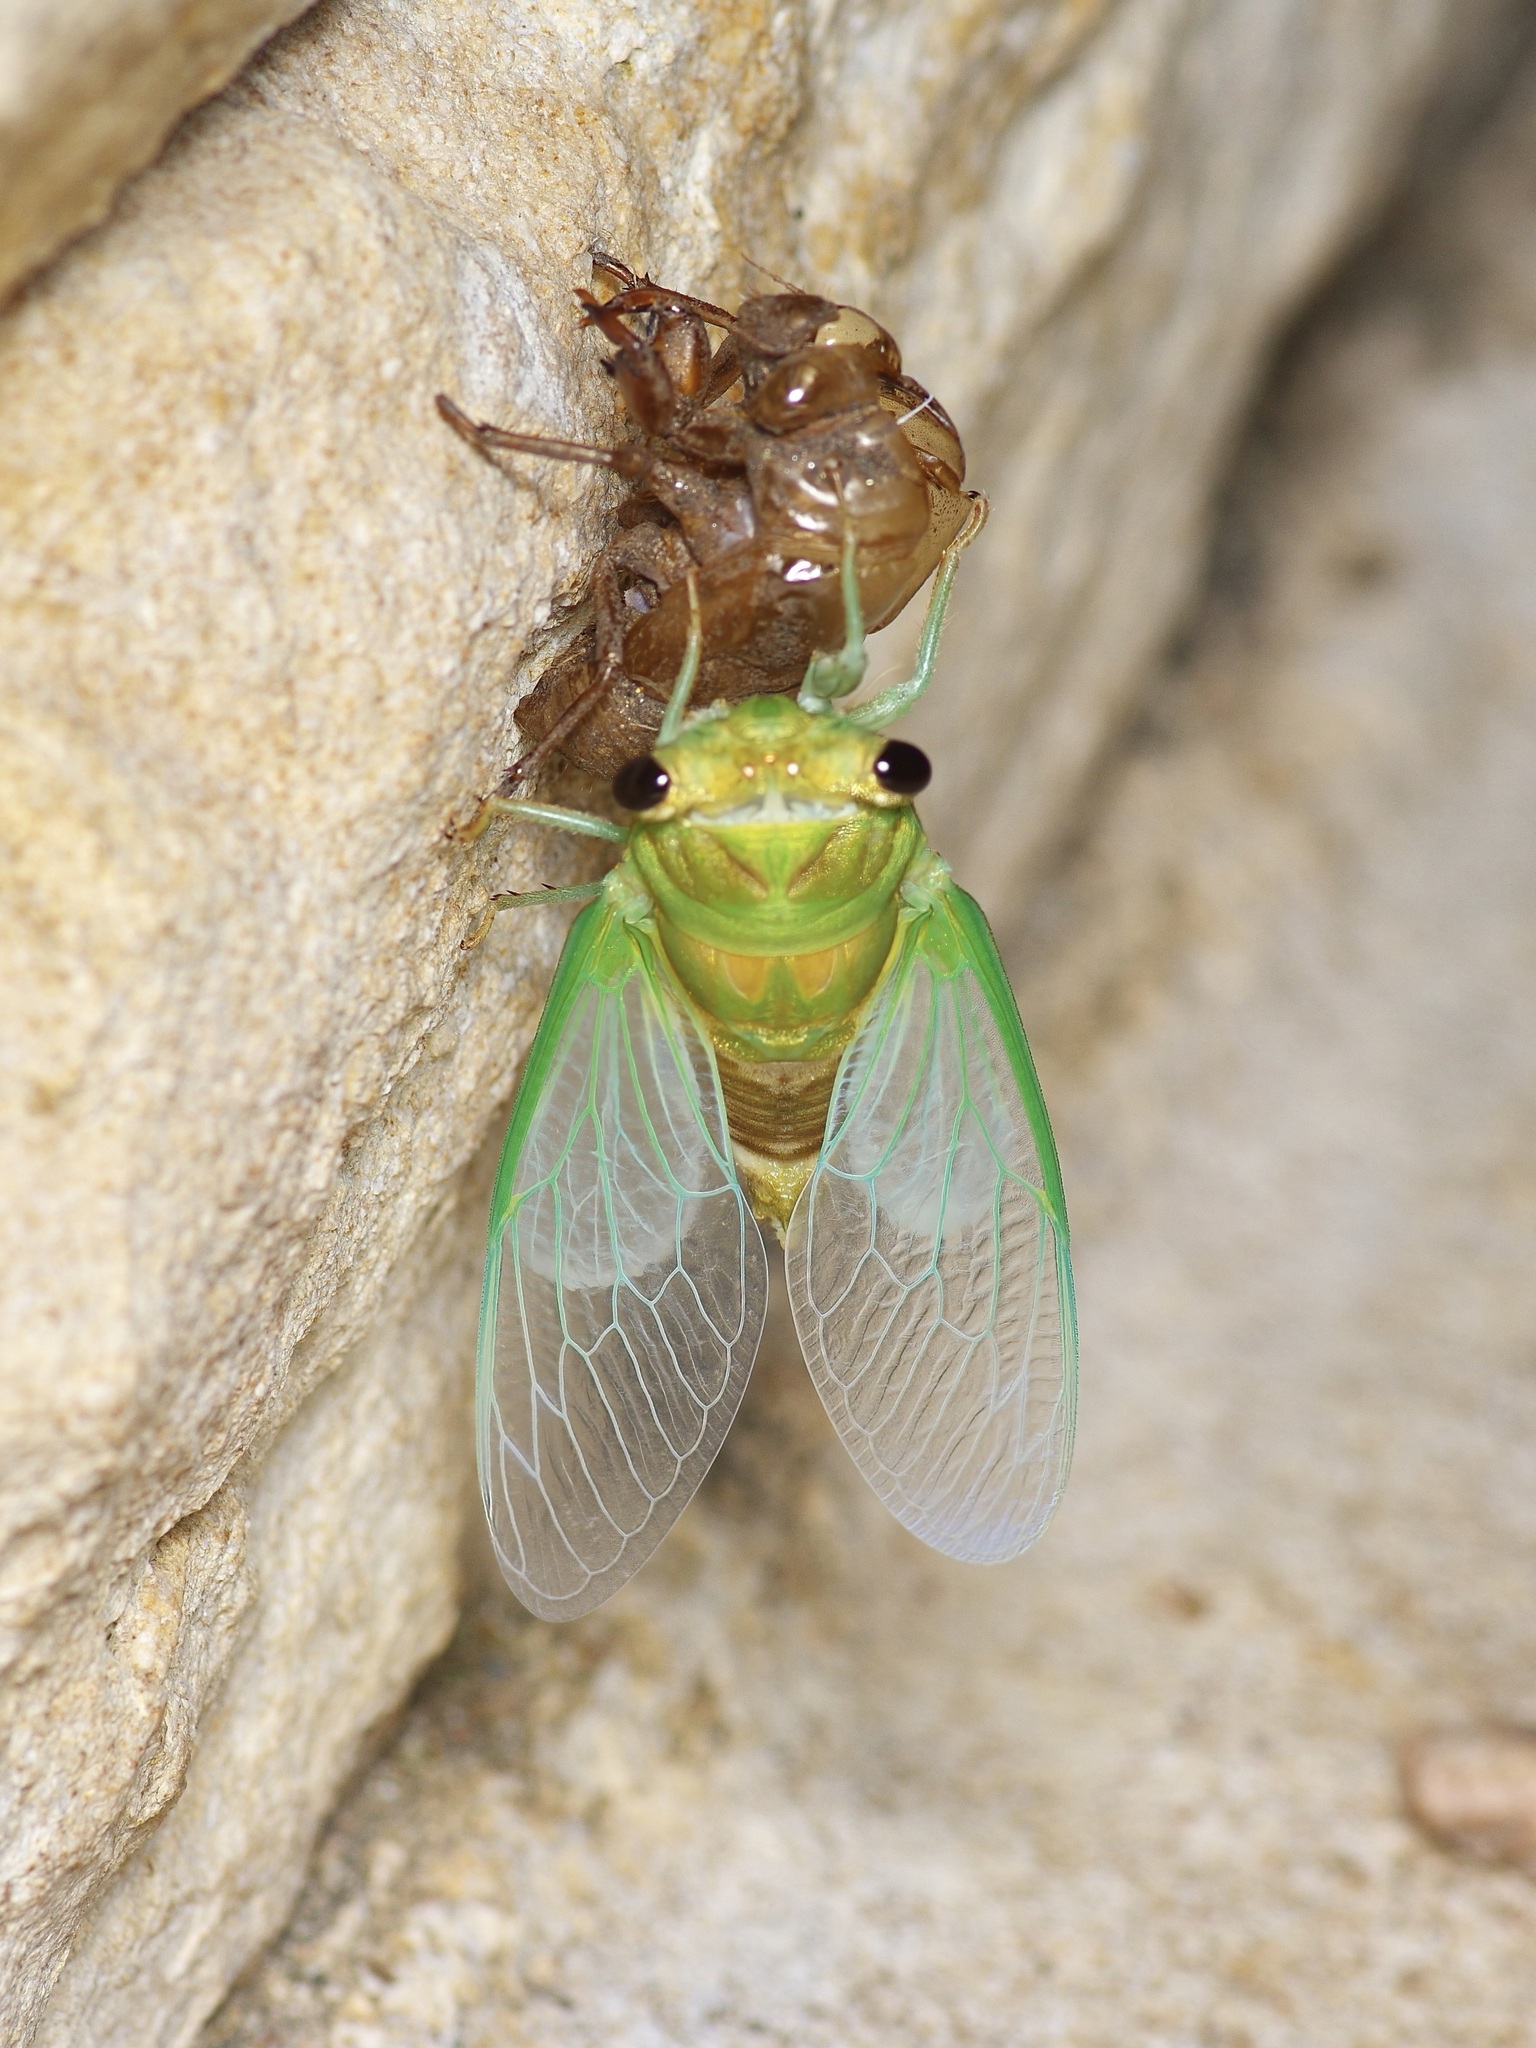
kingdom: Animalia
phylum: Arthropoda
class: Insecta
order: Hemiptera
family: Cicadidae
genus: Neotibicen
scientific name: Neotibicen superbus
